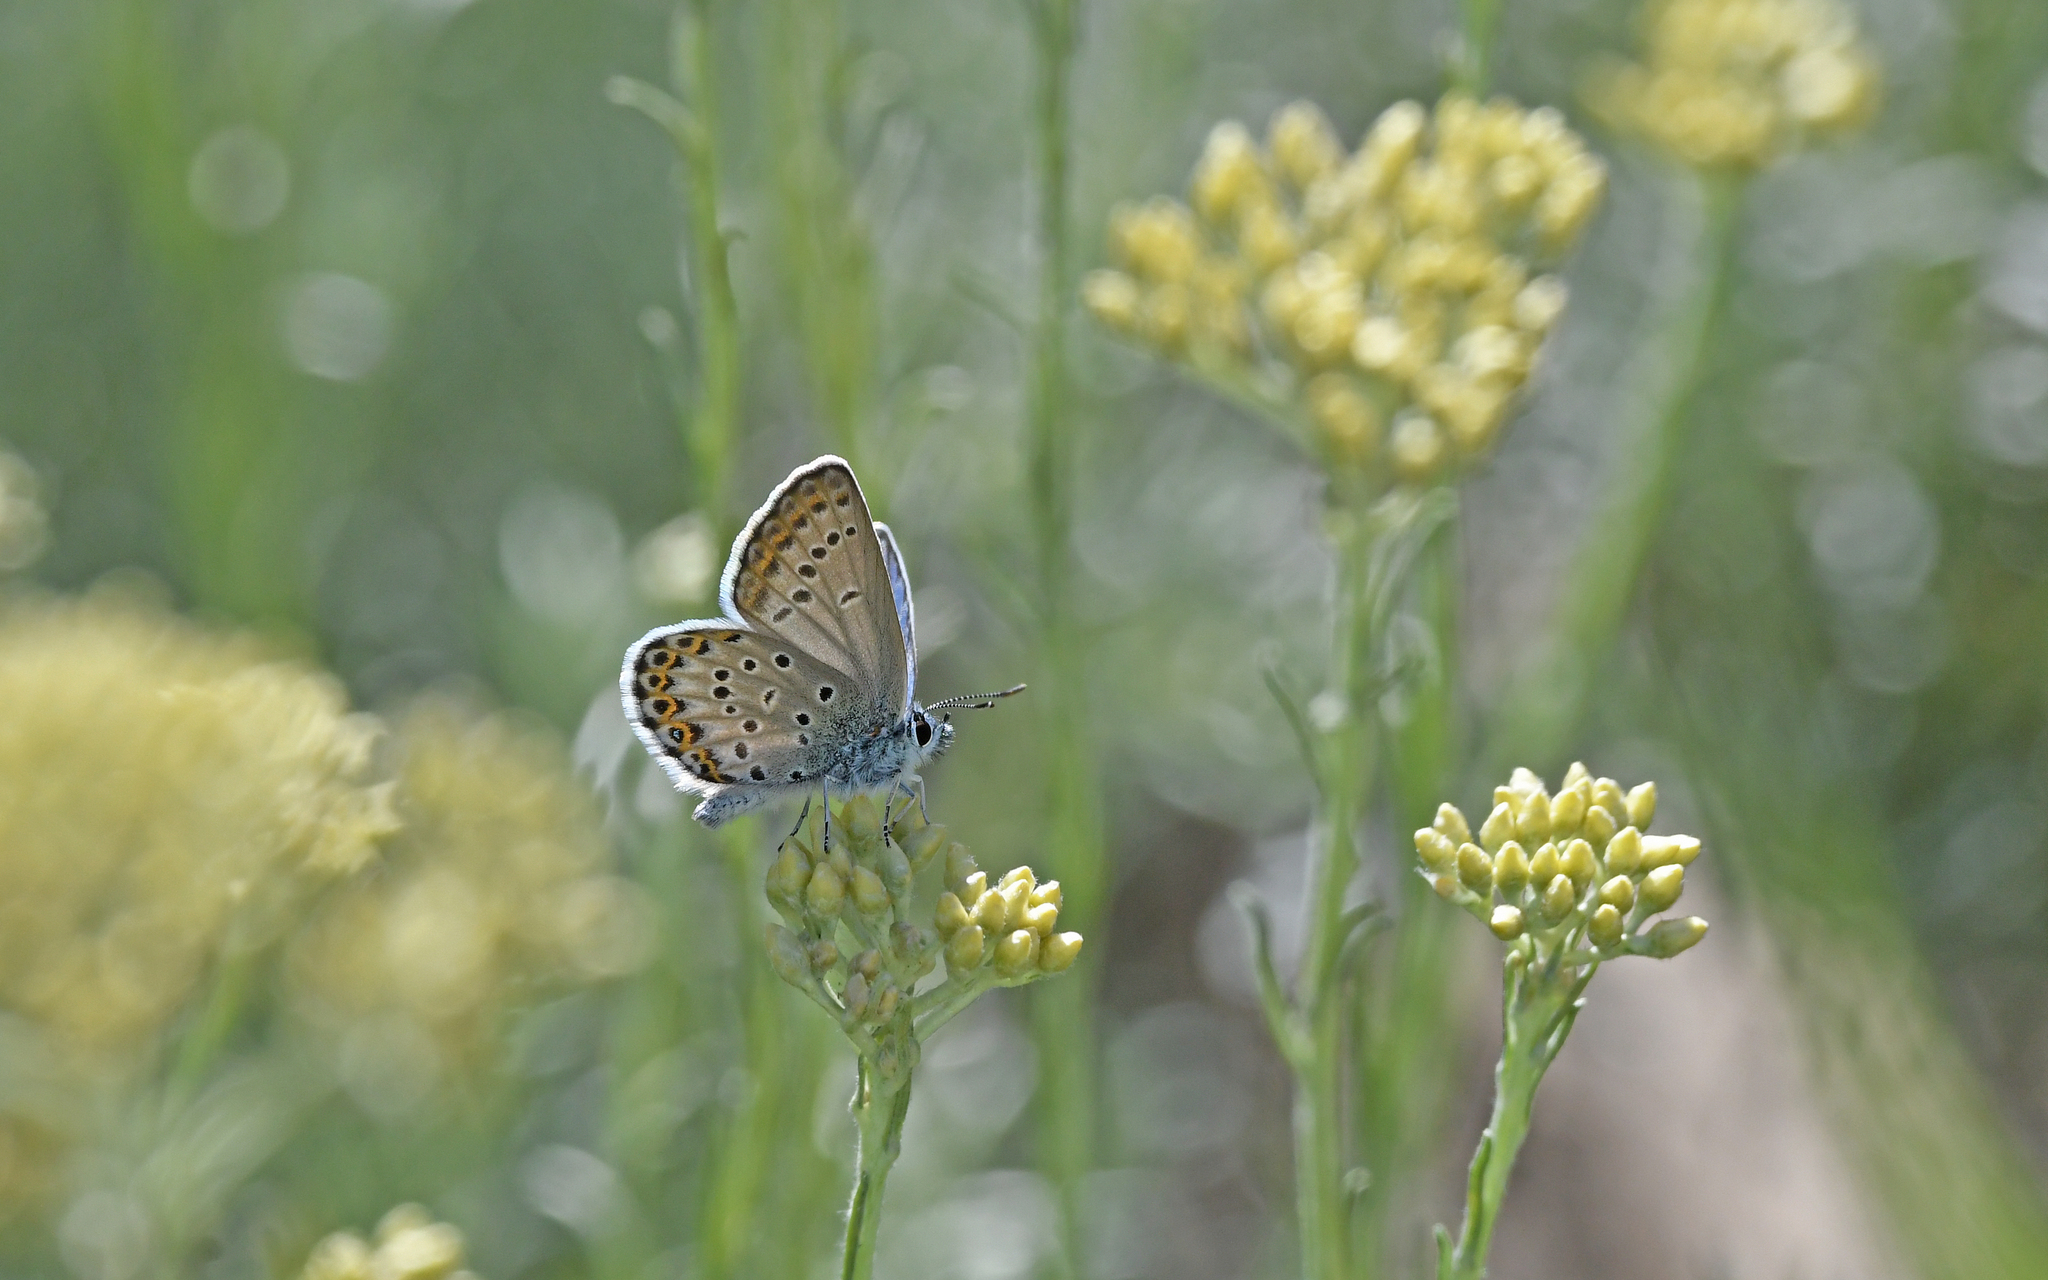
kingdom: Animalia
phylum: Arthropoda
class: Insecta
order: Lepidoptera
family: Lycaenidae
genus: Lycaeides
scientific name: Lycaeides idas
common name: Northern blue
